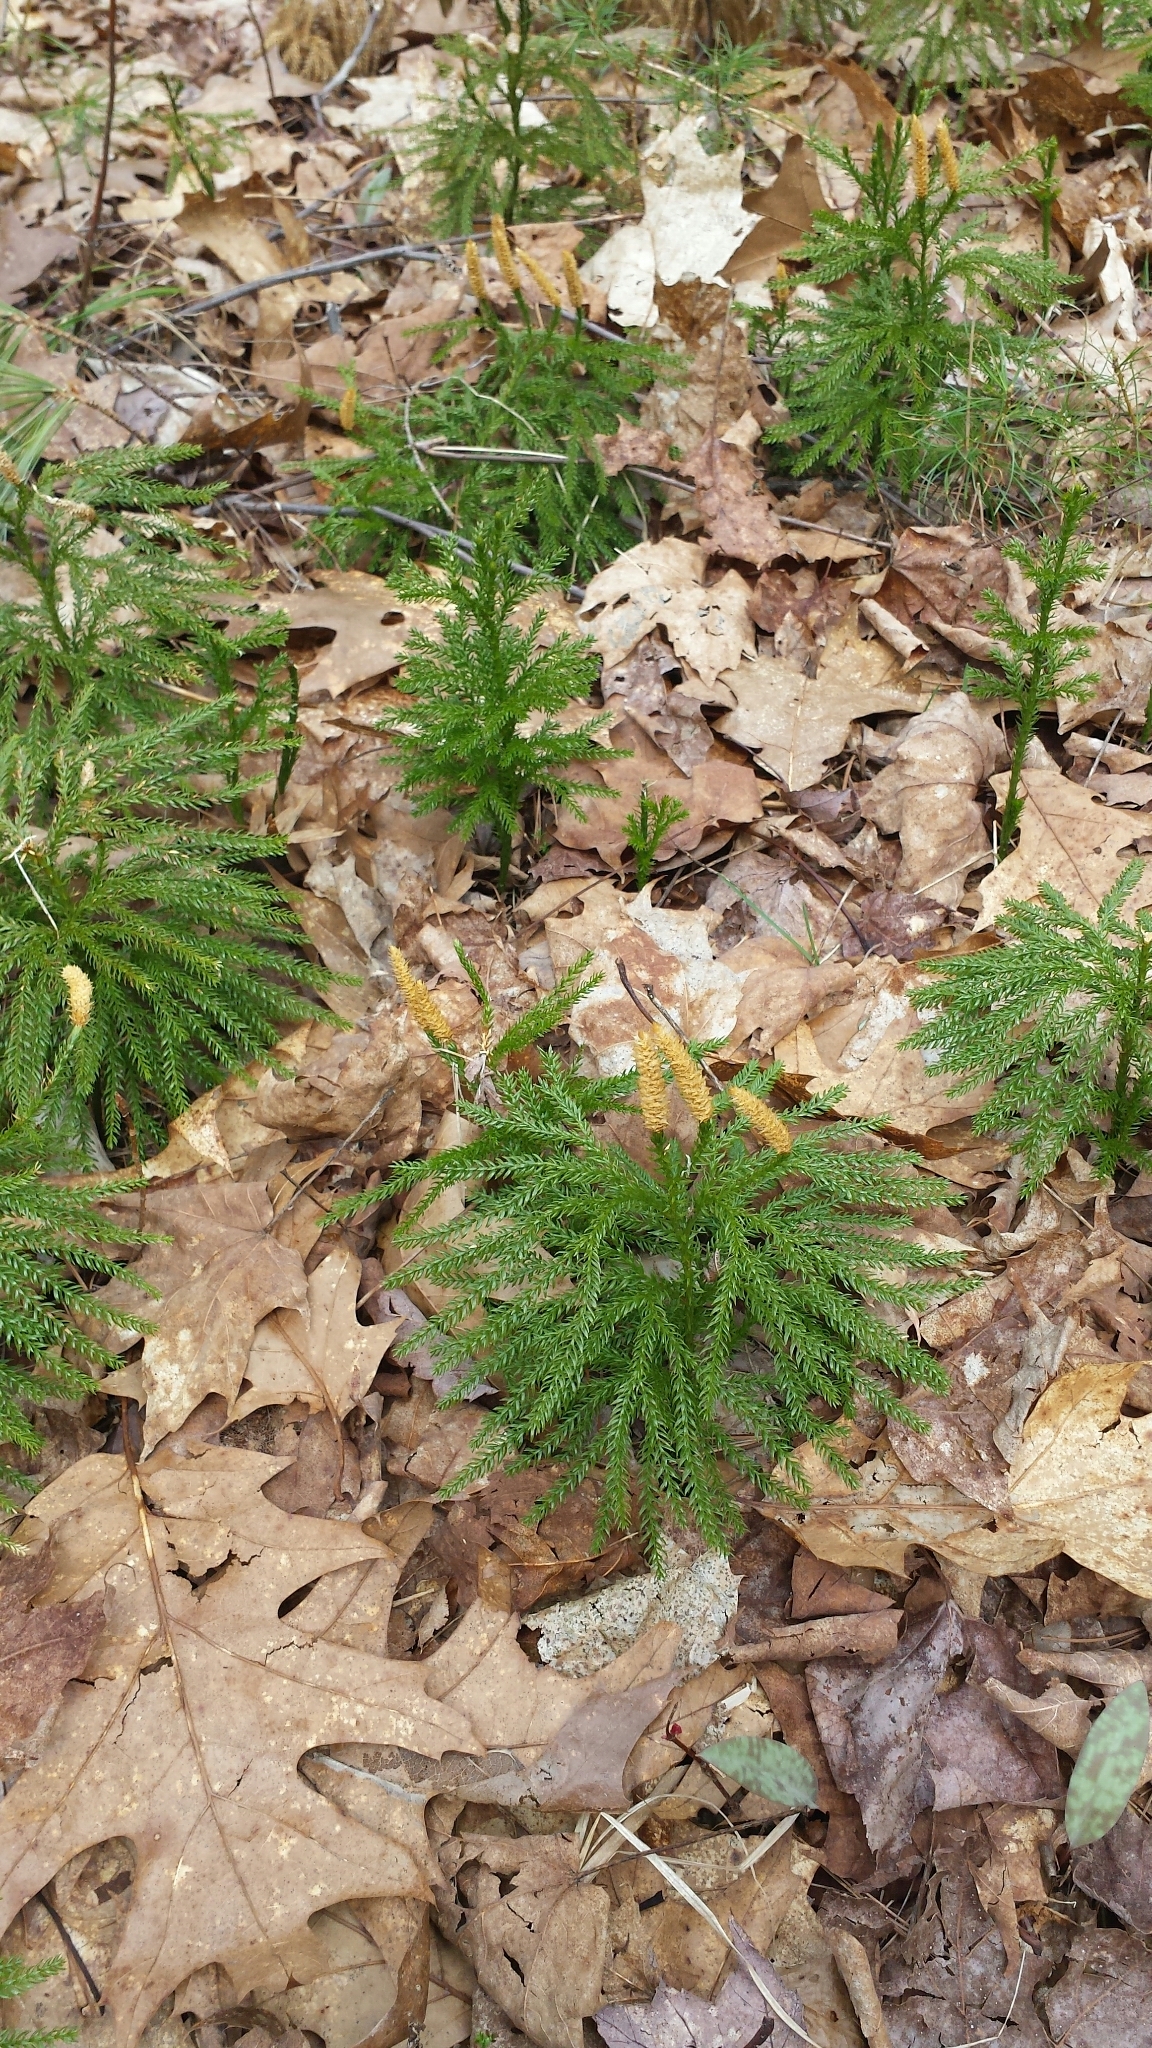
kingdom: Plantae
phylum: Tracheophyta
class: Lycopodiopsida
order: Lycopodiales
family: Lycopodiaceae
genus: Dendrolycopodium
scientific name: Dendrolycopodium dendroideum
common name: Northern tree-clubmoss
